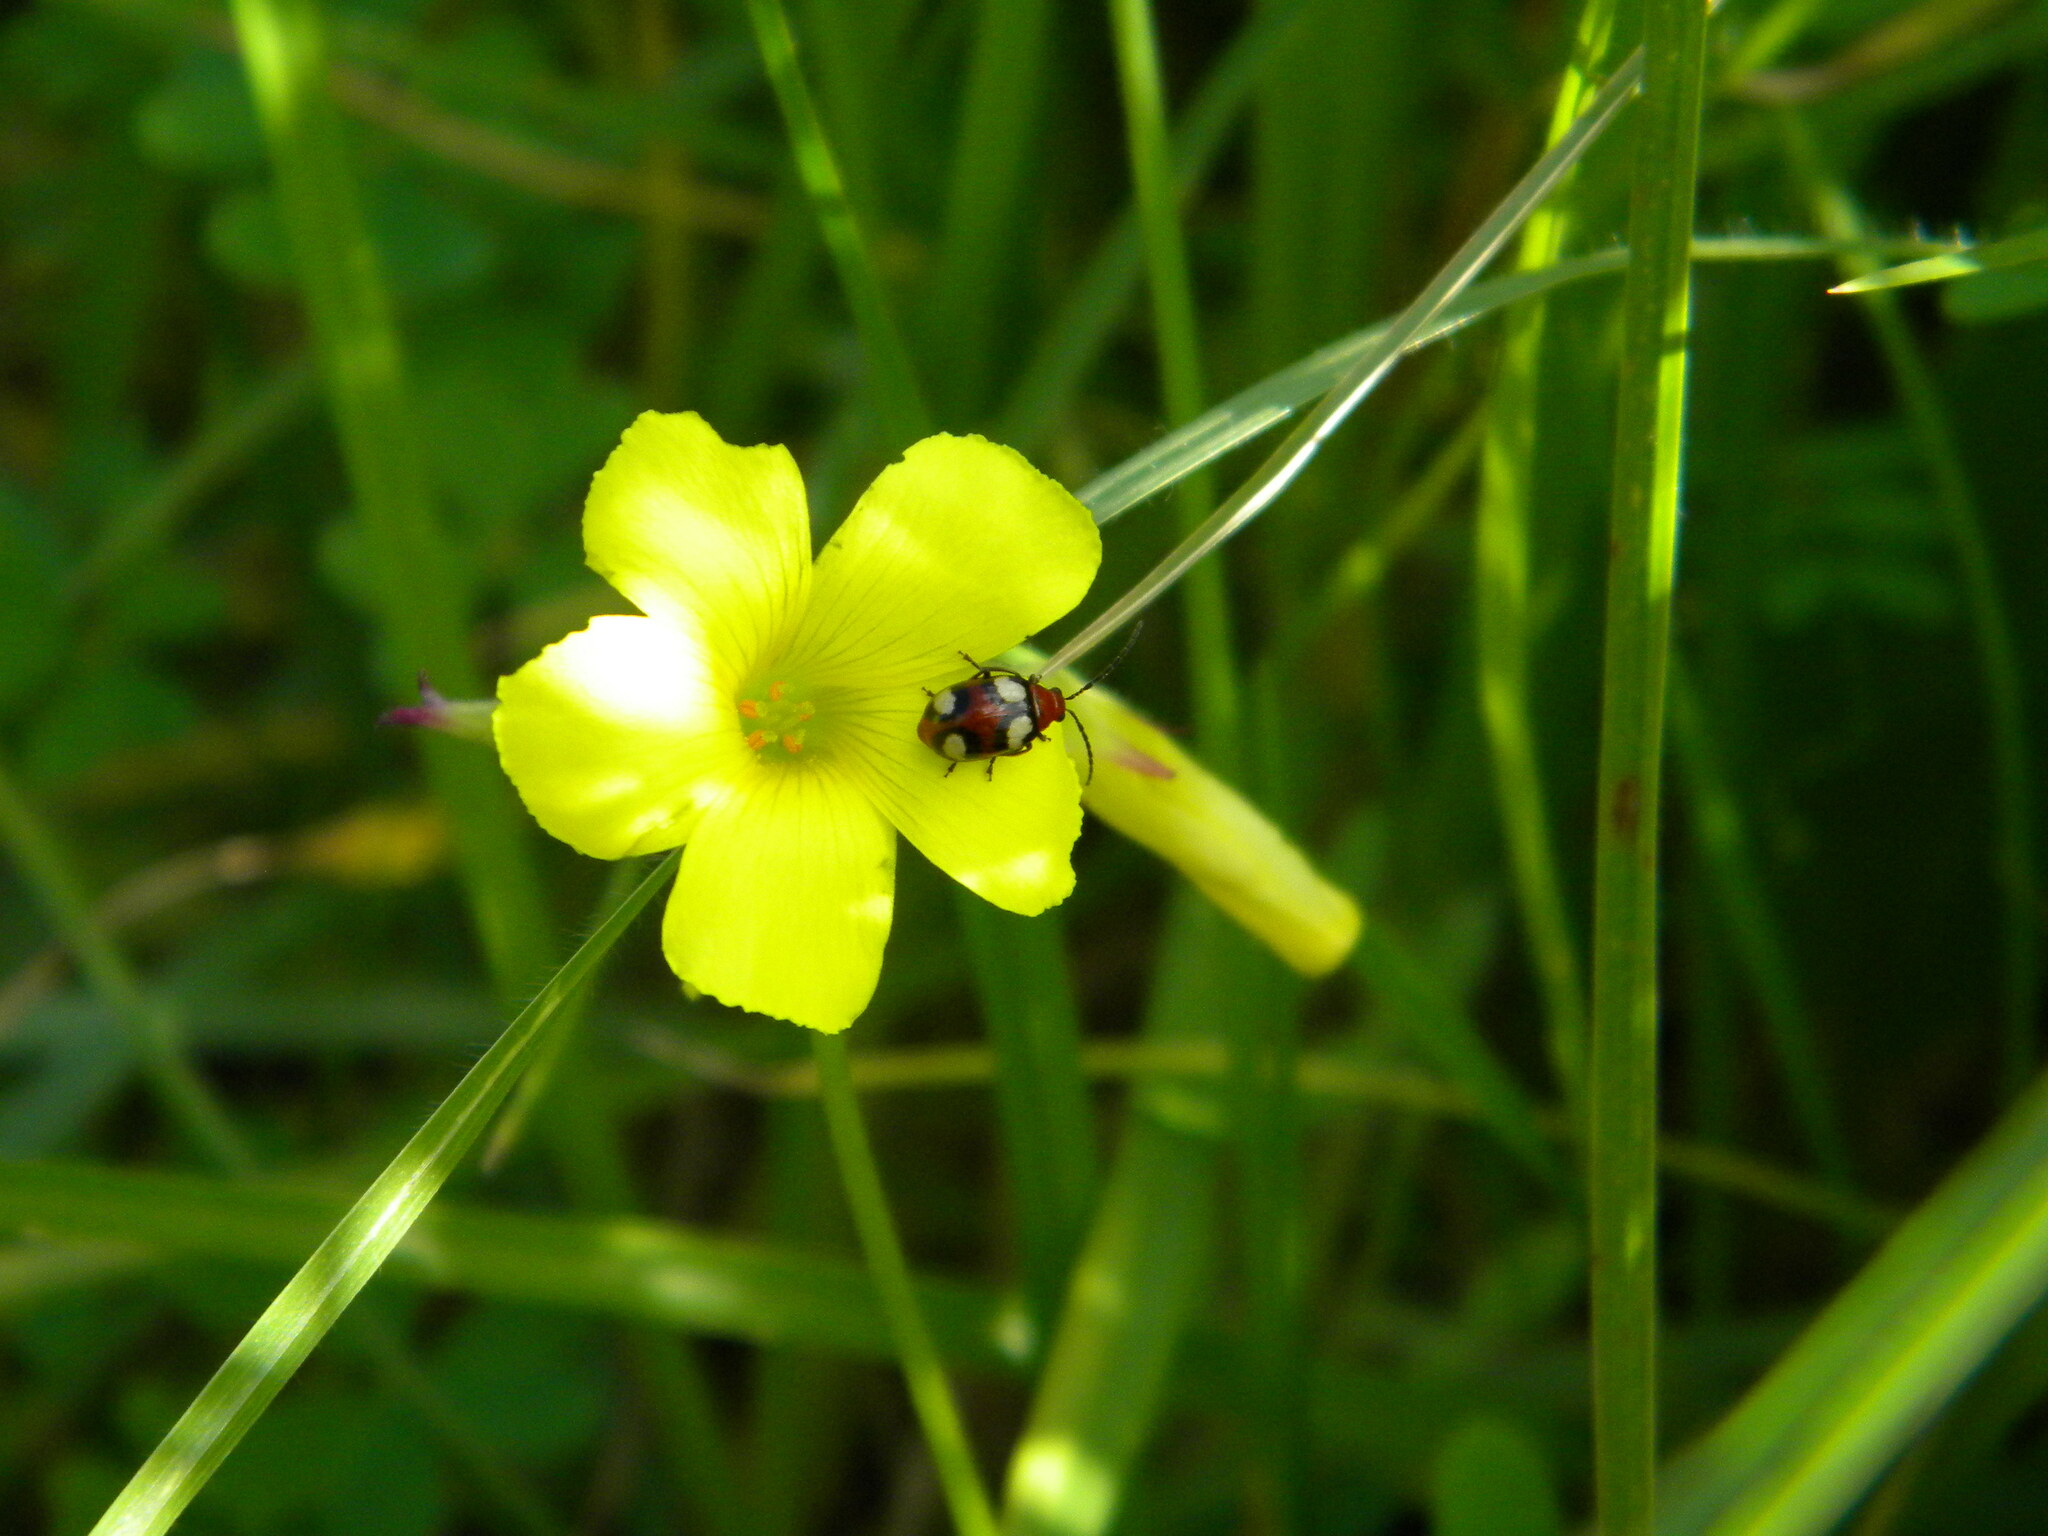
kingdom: Animalia
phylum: Arthropoda
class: Insecta
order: Coleoptera
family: Chrysomelidae
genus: Monolepta
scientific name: Monolepta
